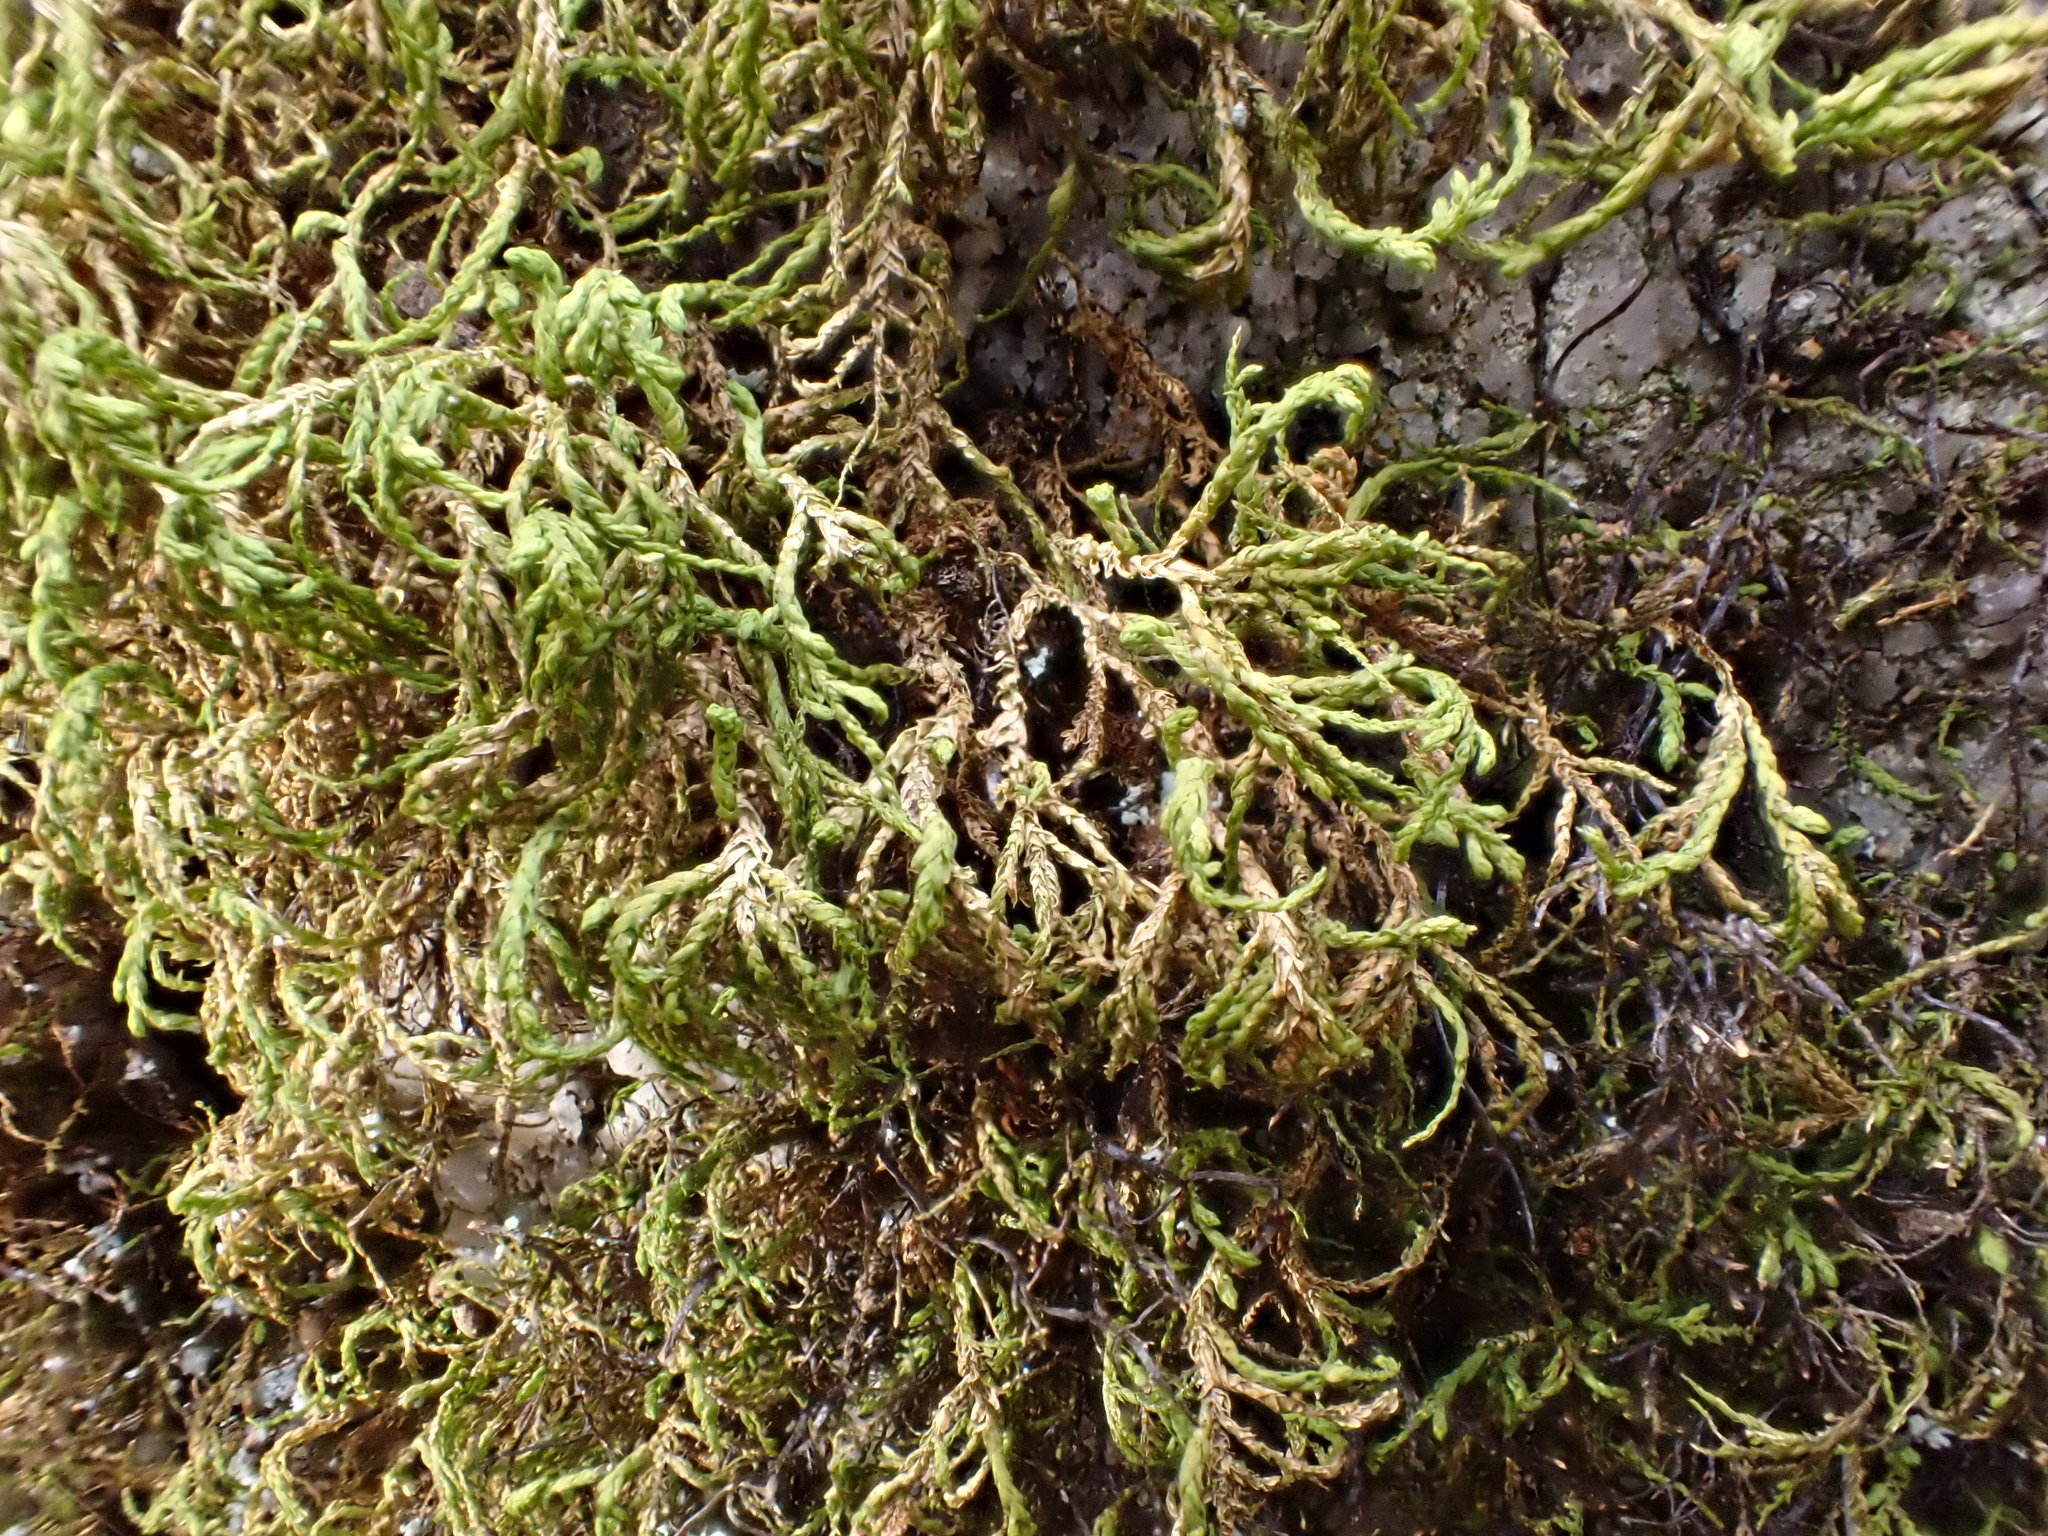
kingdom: Plantae
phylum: Bryophyta
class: Bryopsida
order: Hypnales
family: Neckeraceae
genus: Pseudanomodon
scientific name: Pseudanomodon attenuatus
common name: Tree-skirt moss
